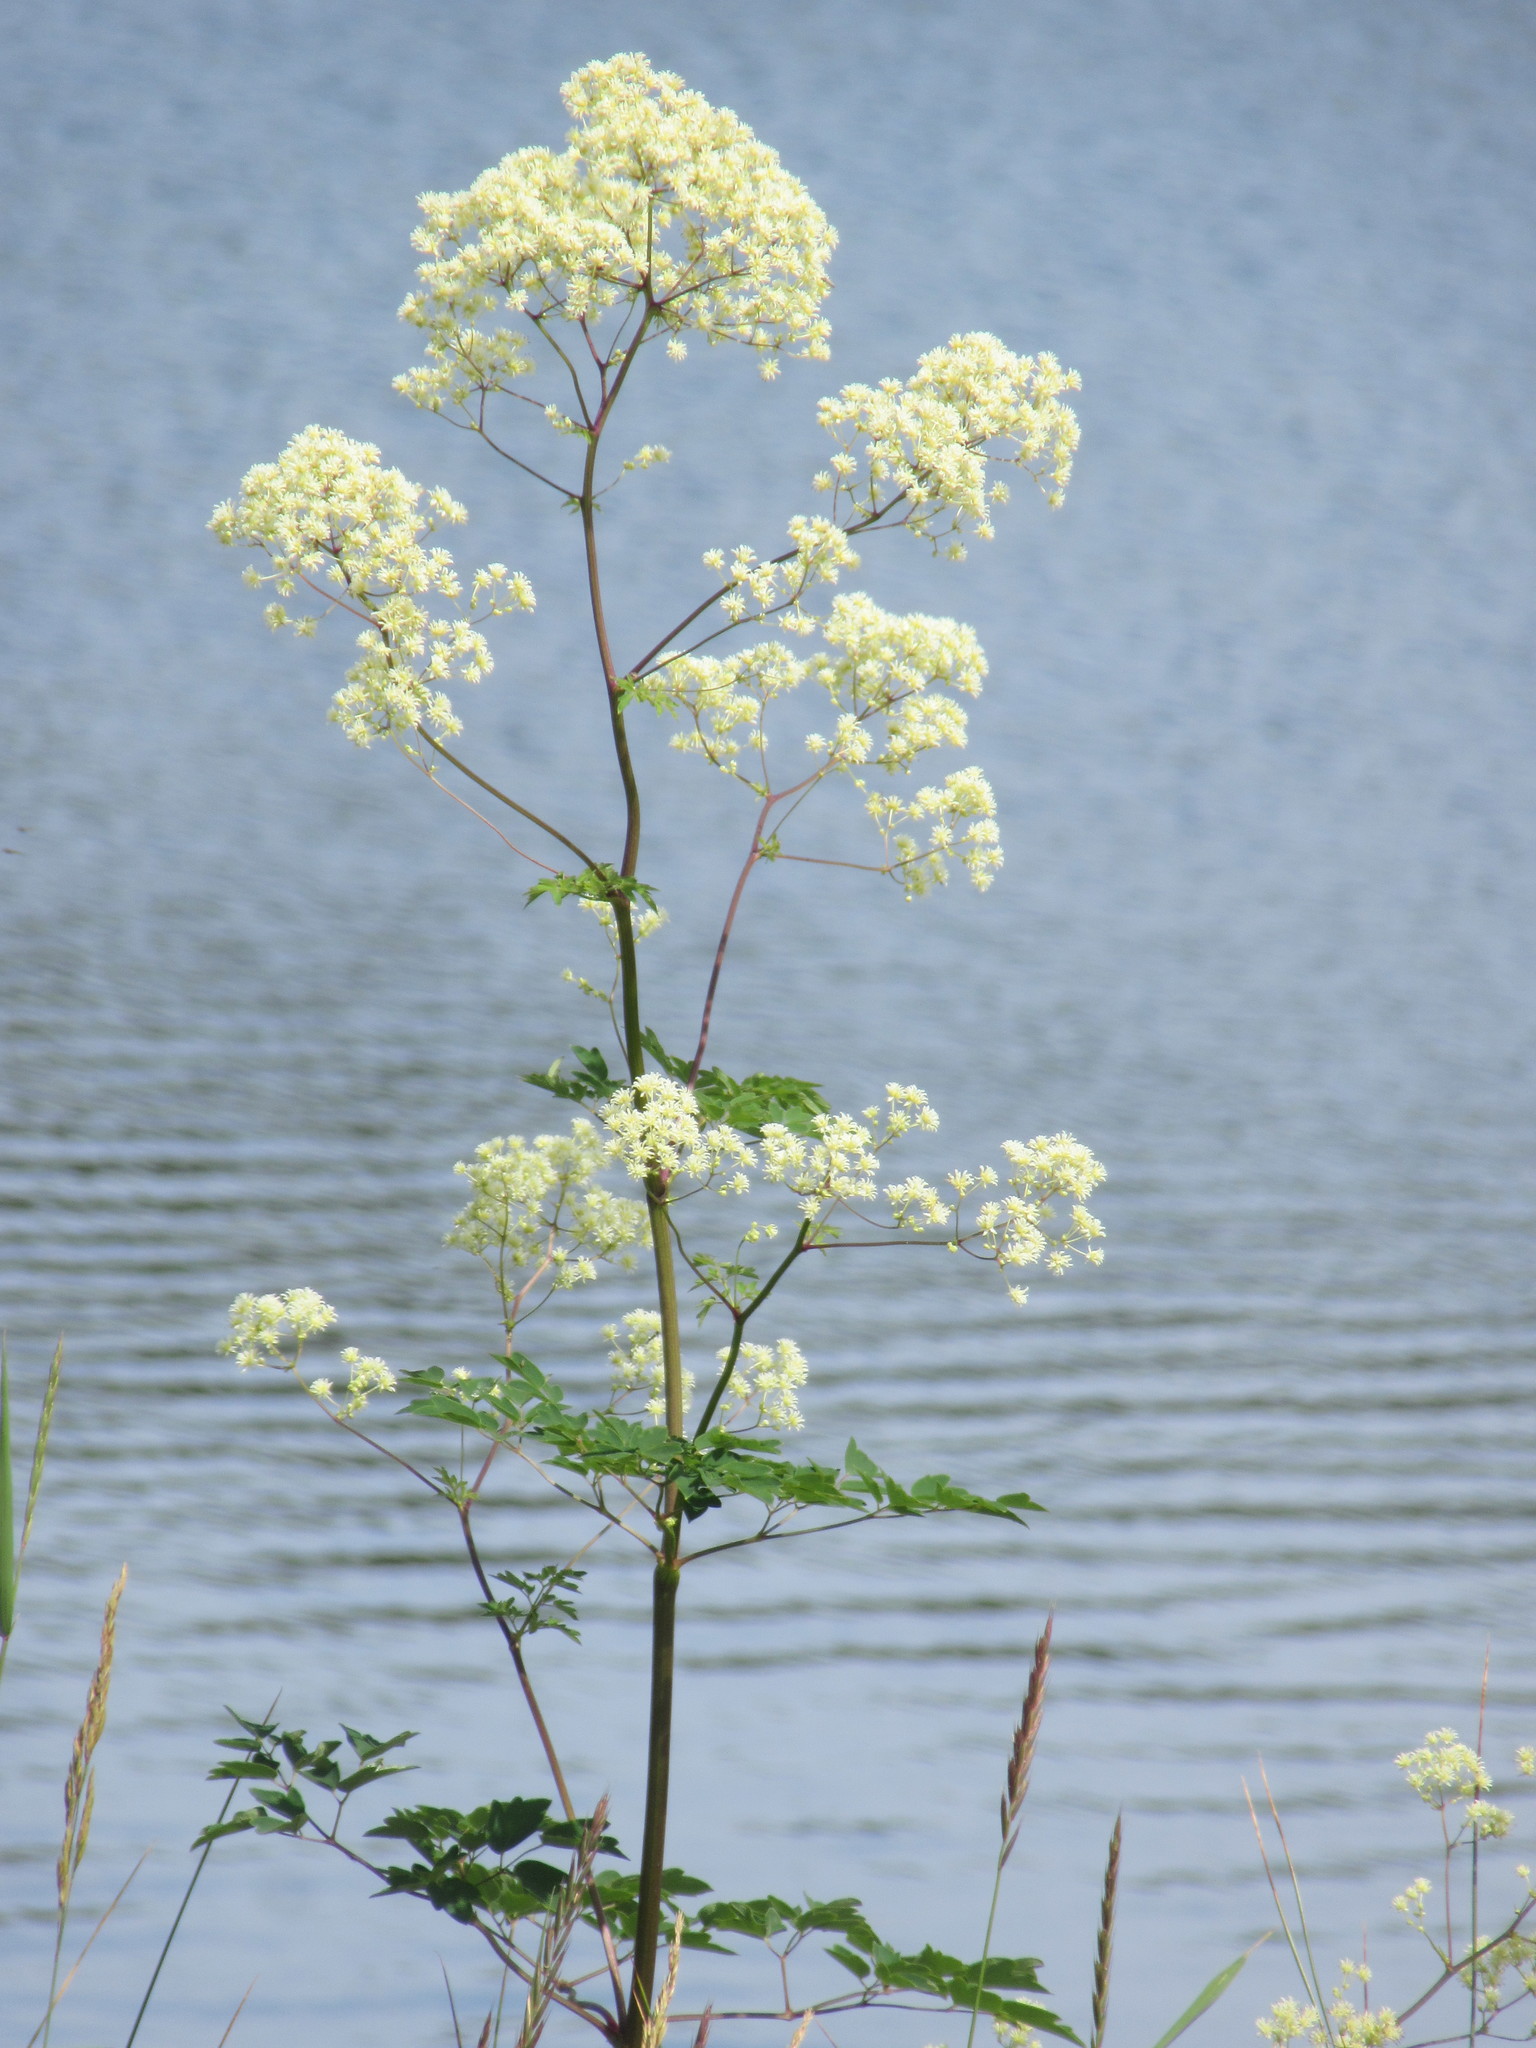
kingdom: Plantae
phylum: Tracheophyta
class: Magnoliopsida
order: Ranunculales
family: Ranunculaceae
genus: Thalictrum
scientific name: Thalictrum pubescens
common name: King-of-the-meadow
